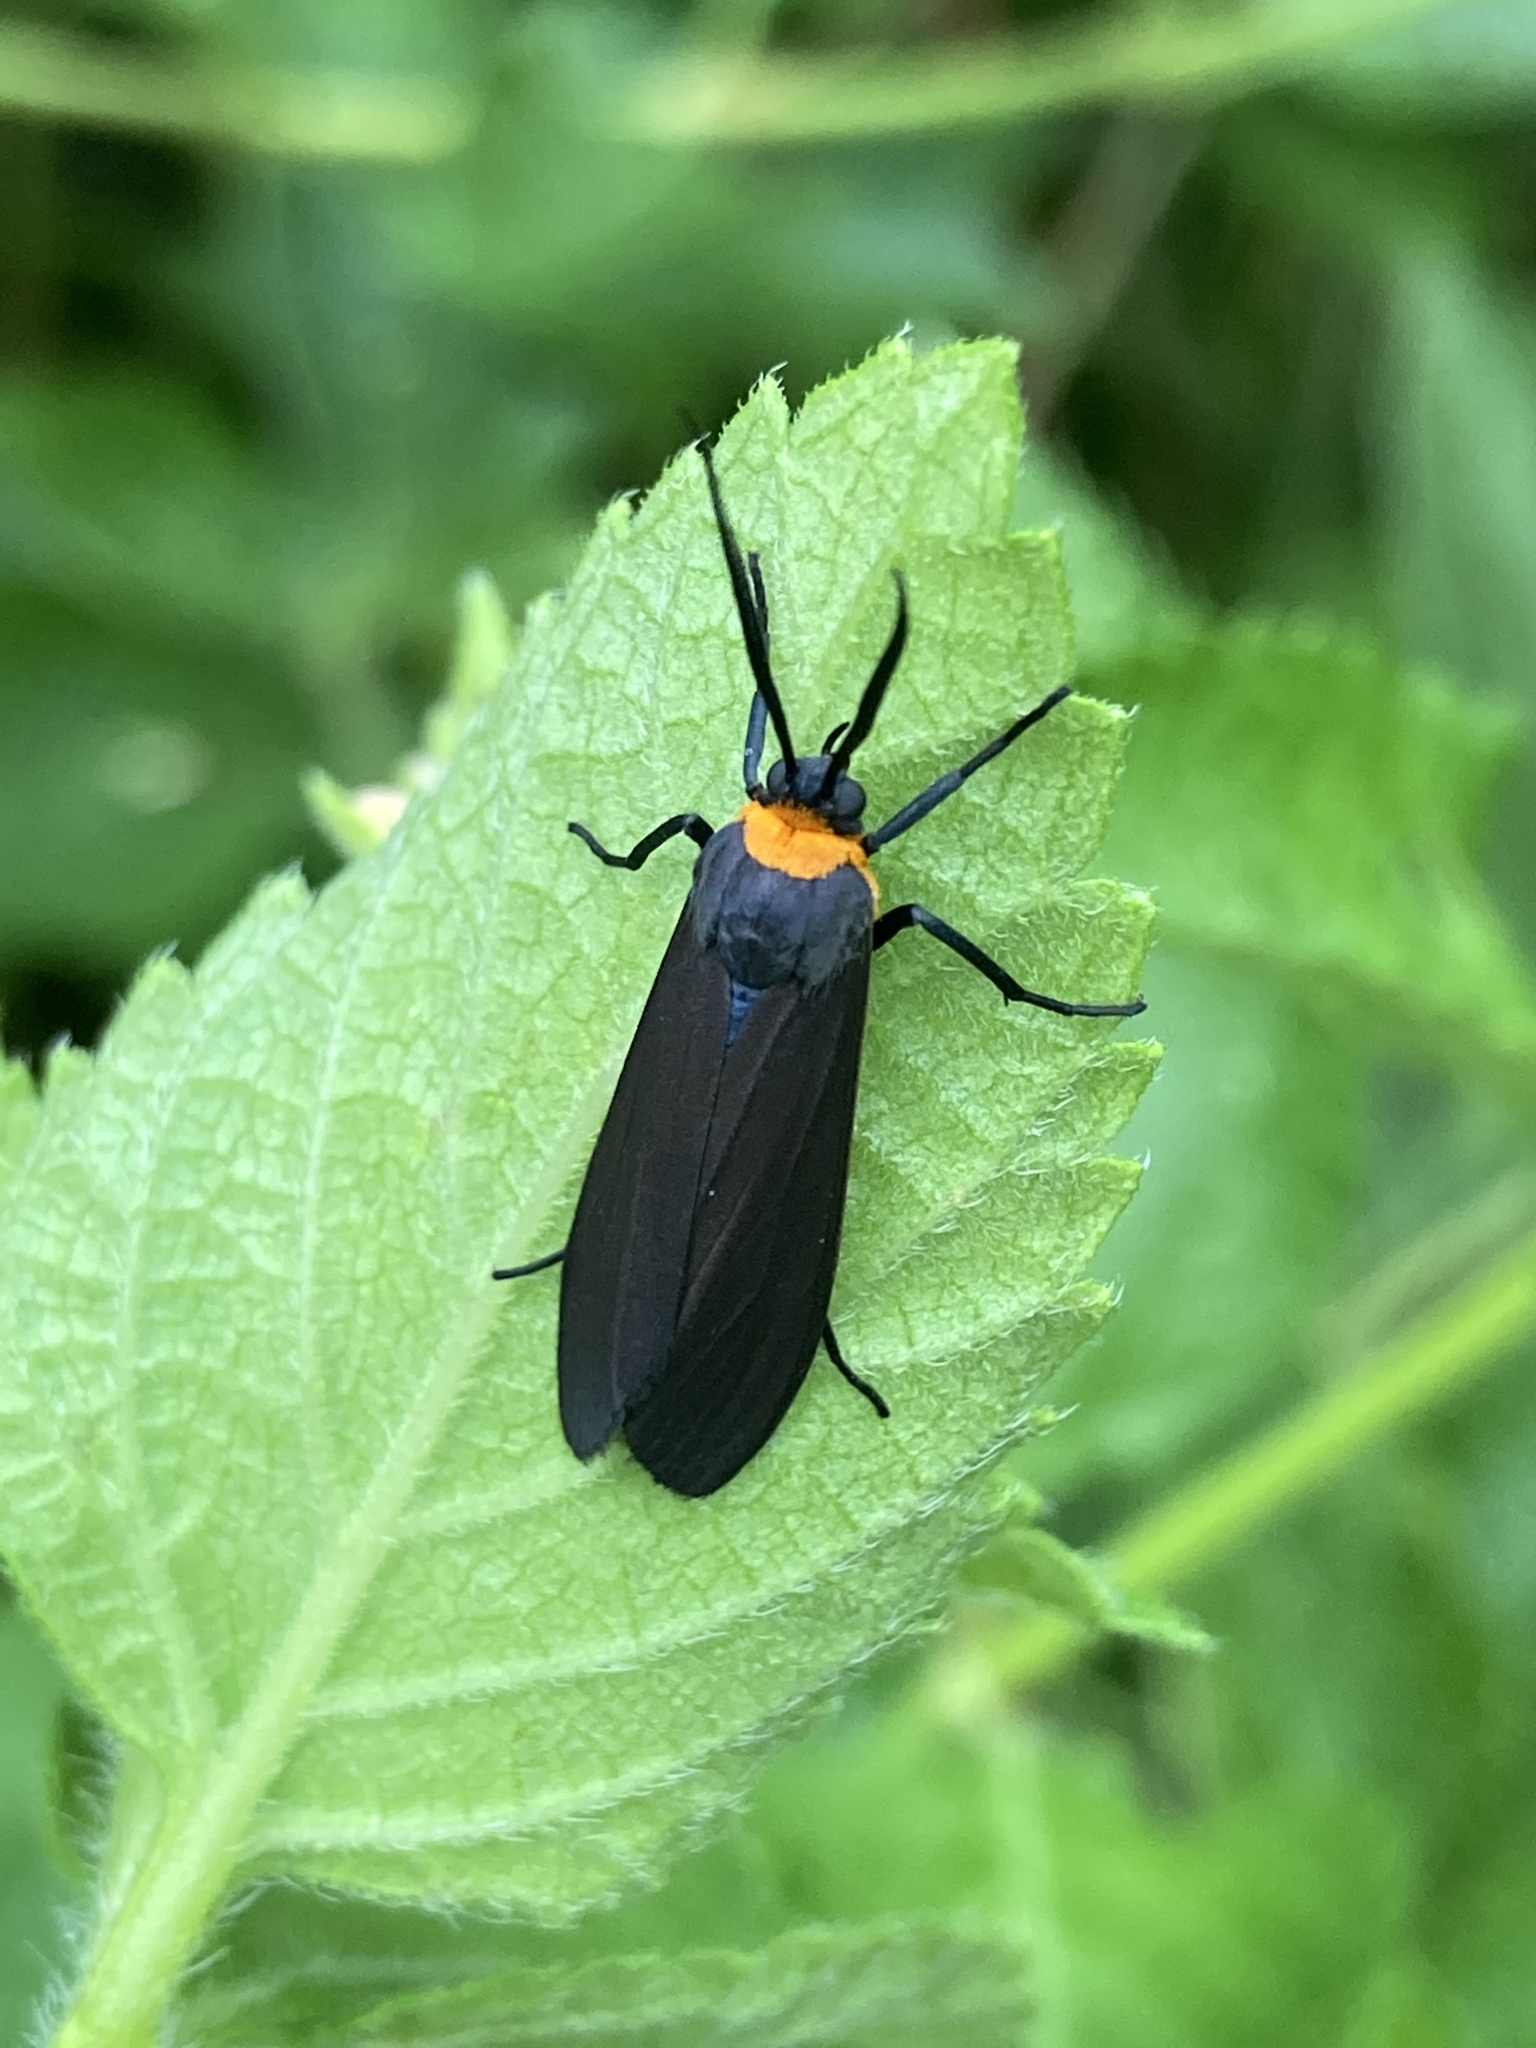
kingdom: Animalia
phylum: Arthropoda
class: Insecta
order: Lepidoptera
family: Erebidae
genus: Cisseps
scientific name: Cisseps fulvicollis
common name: Yellow-collared scape moth
